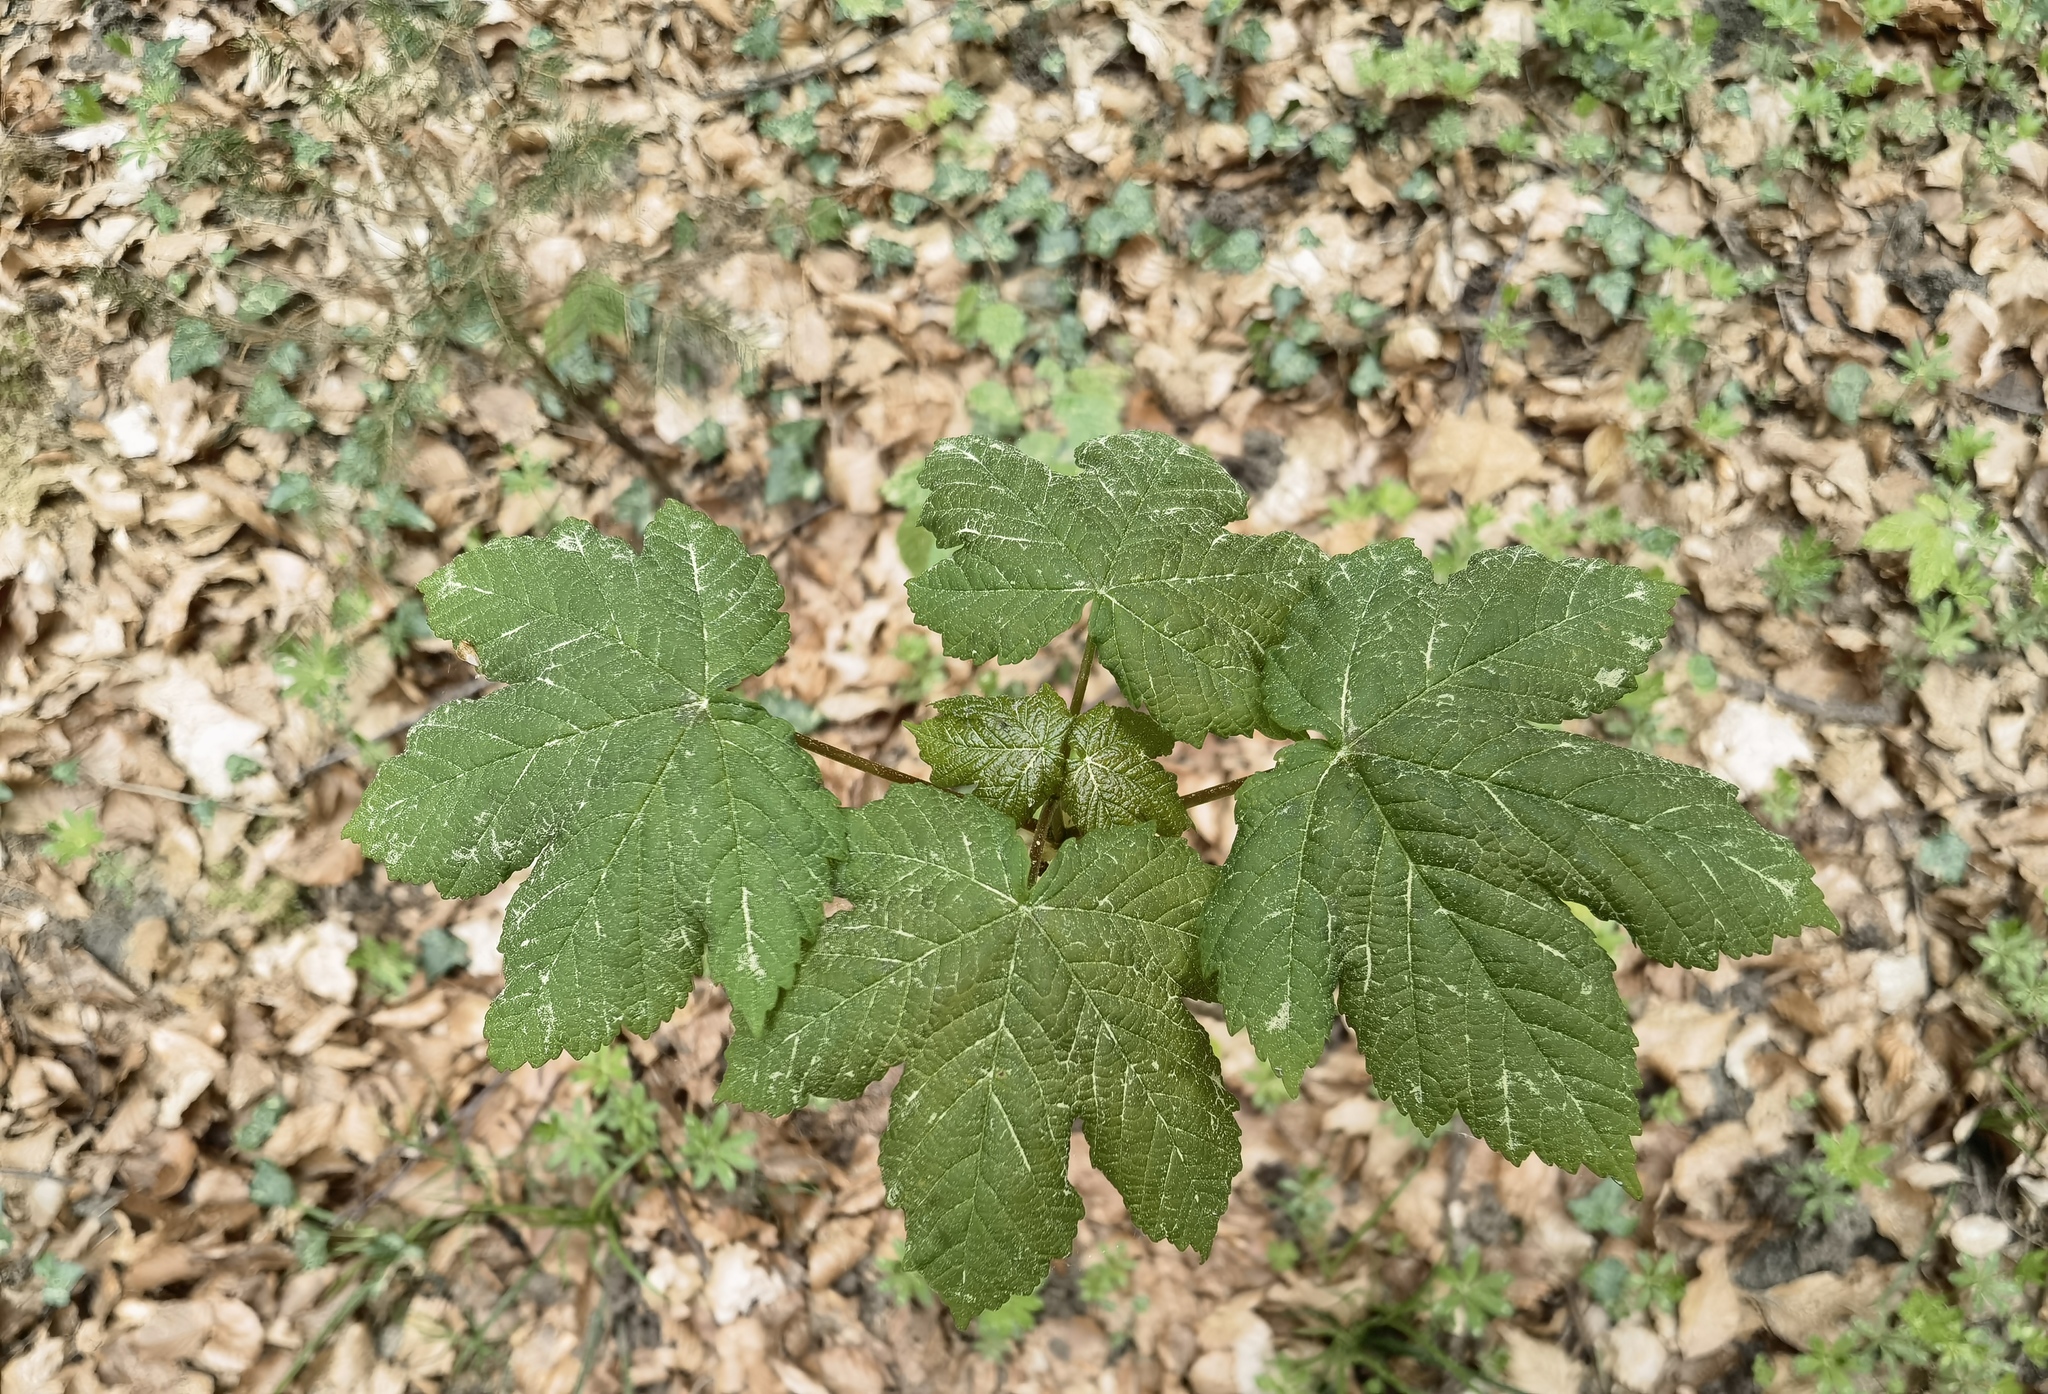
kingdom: Plantae
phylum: Tracheophyta
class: Magnoliopsida
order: Sapindales
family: Sapindaceae
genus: Acer
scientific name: Acer pseudoplatanus
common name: Sycamore
